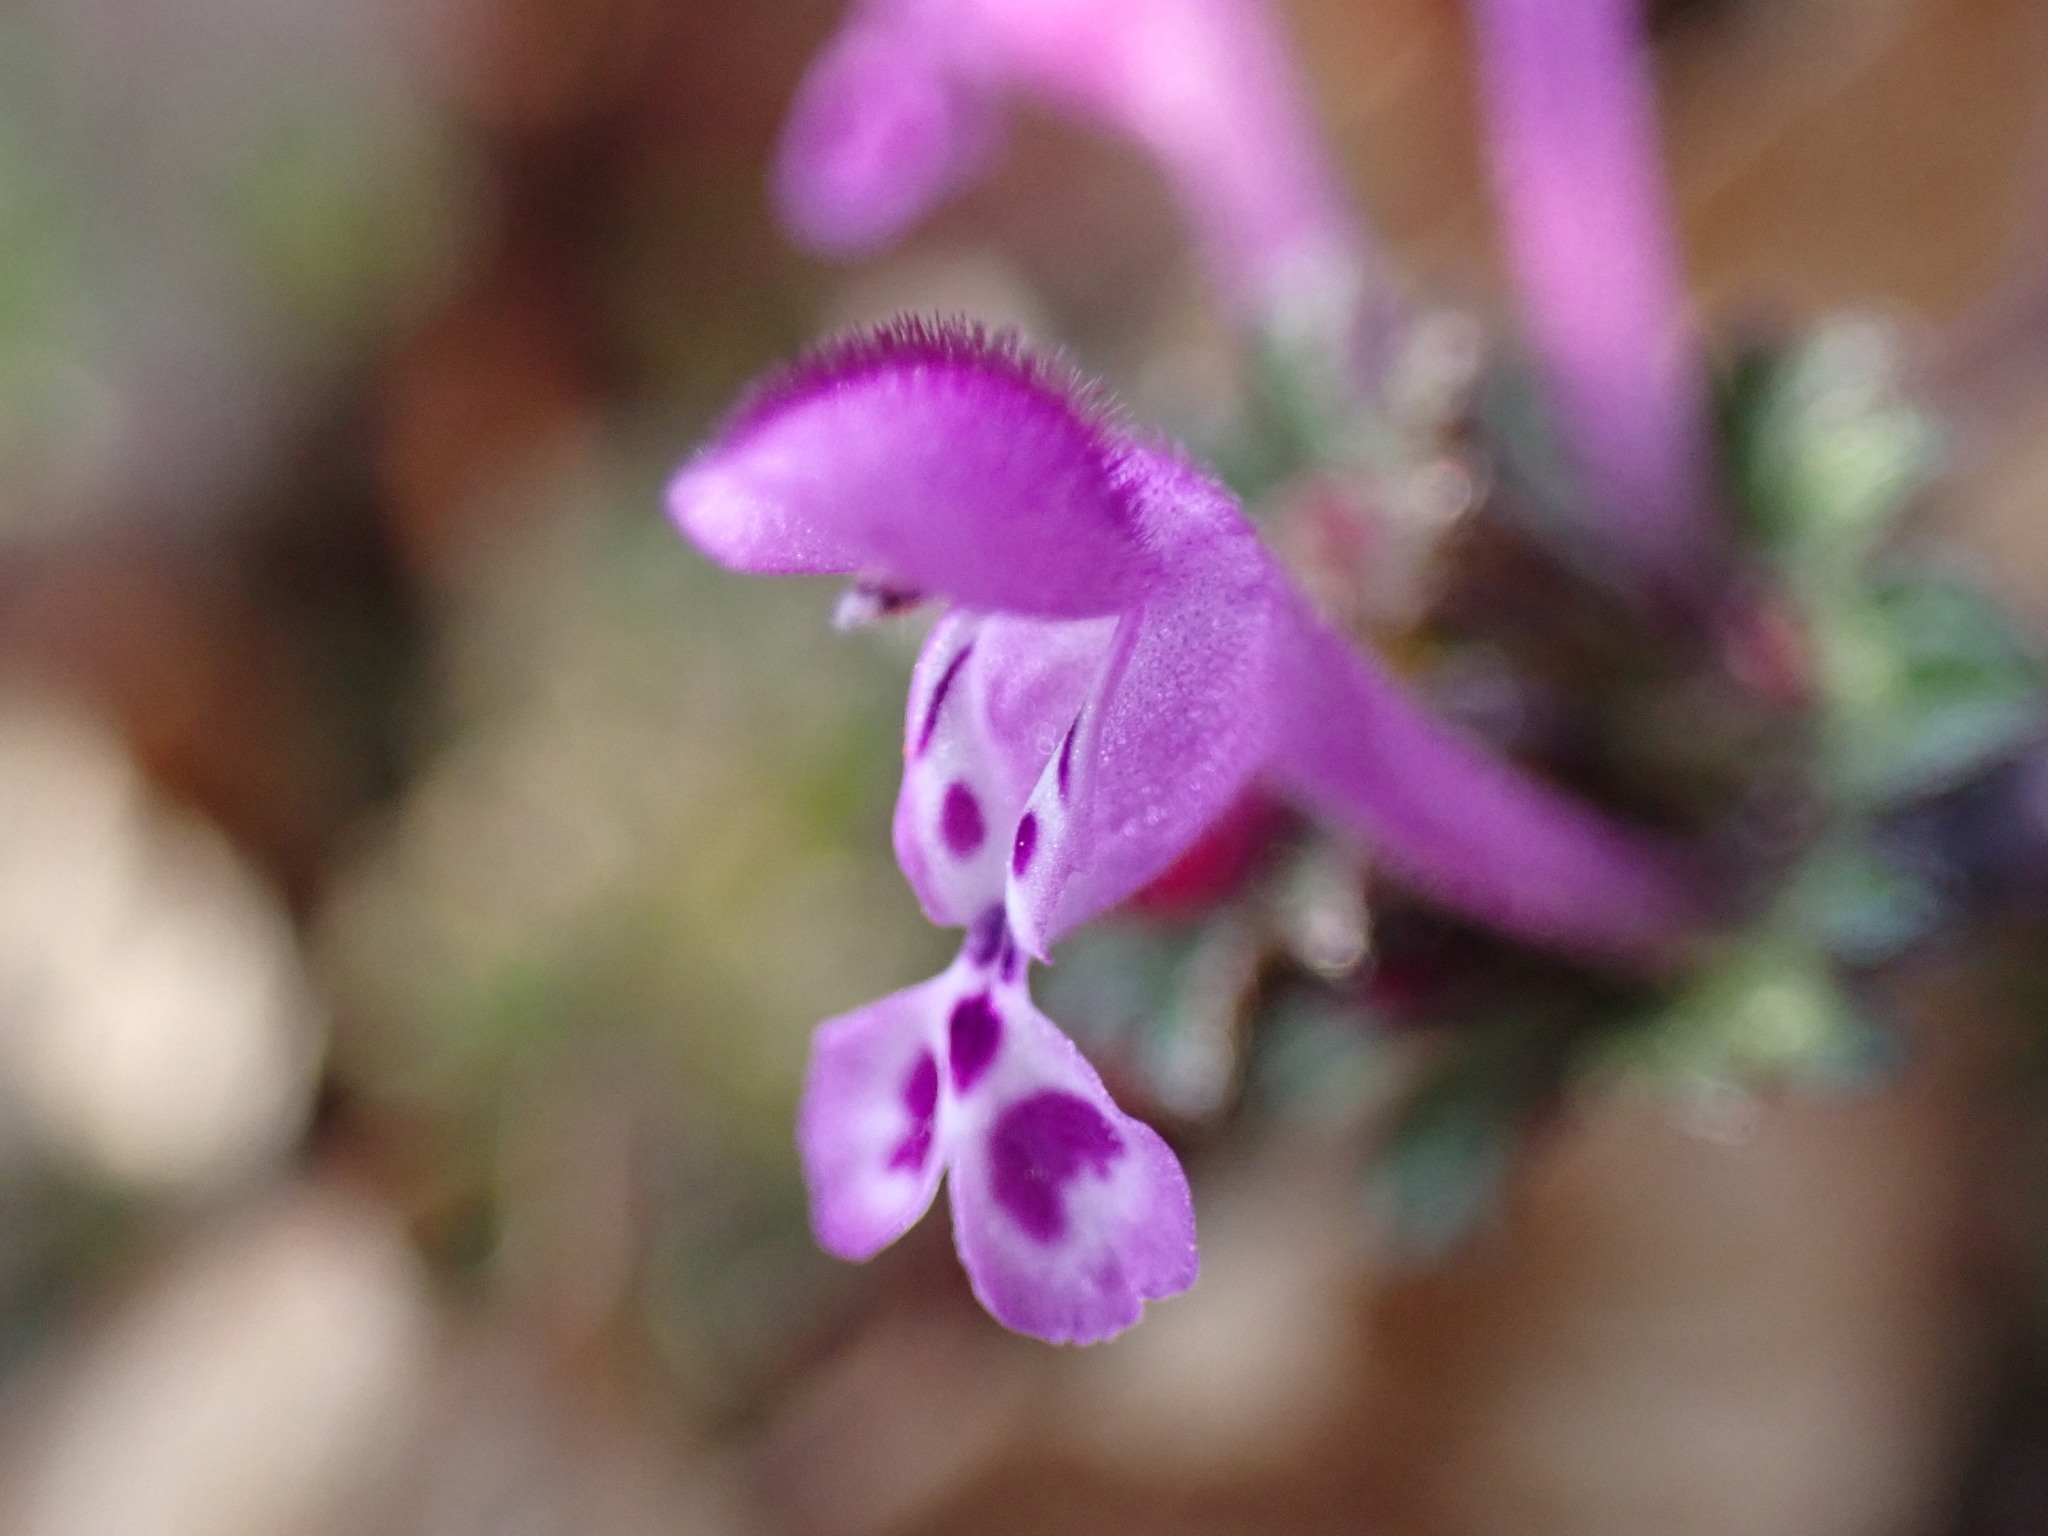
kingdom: Plantae
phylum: Tracheophyta
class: Magnoliopsida
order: Lamiales
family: Lamiaceae
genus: Lamium
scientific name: Lamium amplexicaule
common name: Henbit dead-nettle
